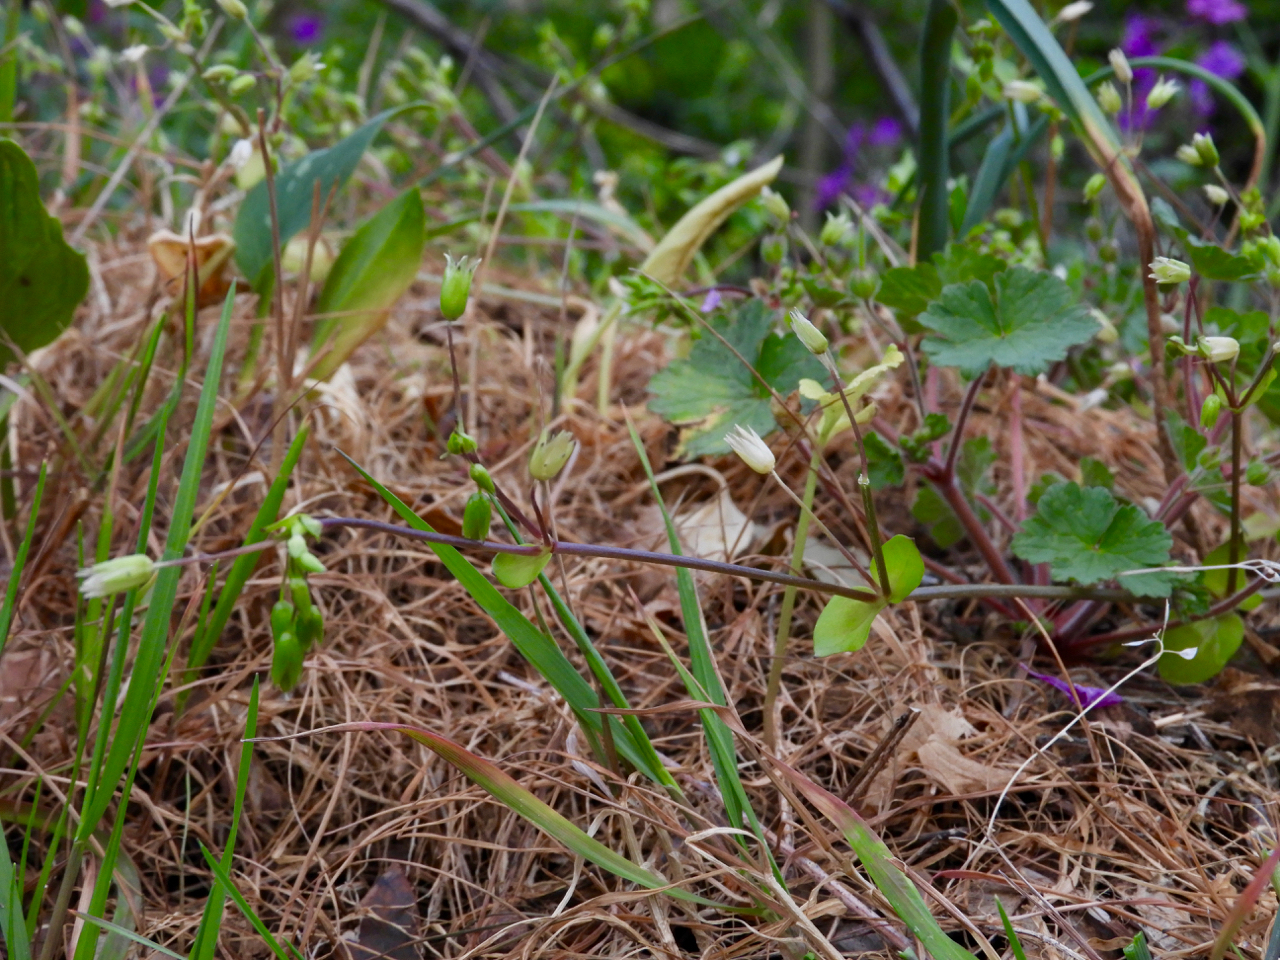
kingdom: Plantae
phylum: Tracheophyta
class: Magnoliopsida
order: Caryophyllales
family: Caryophyllaceae
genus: Stellaria
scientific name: Stellaria
